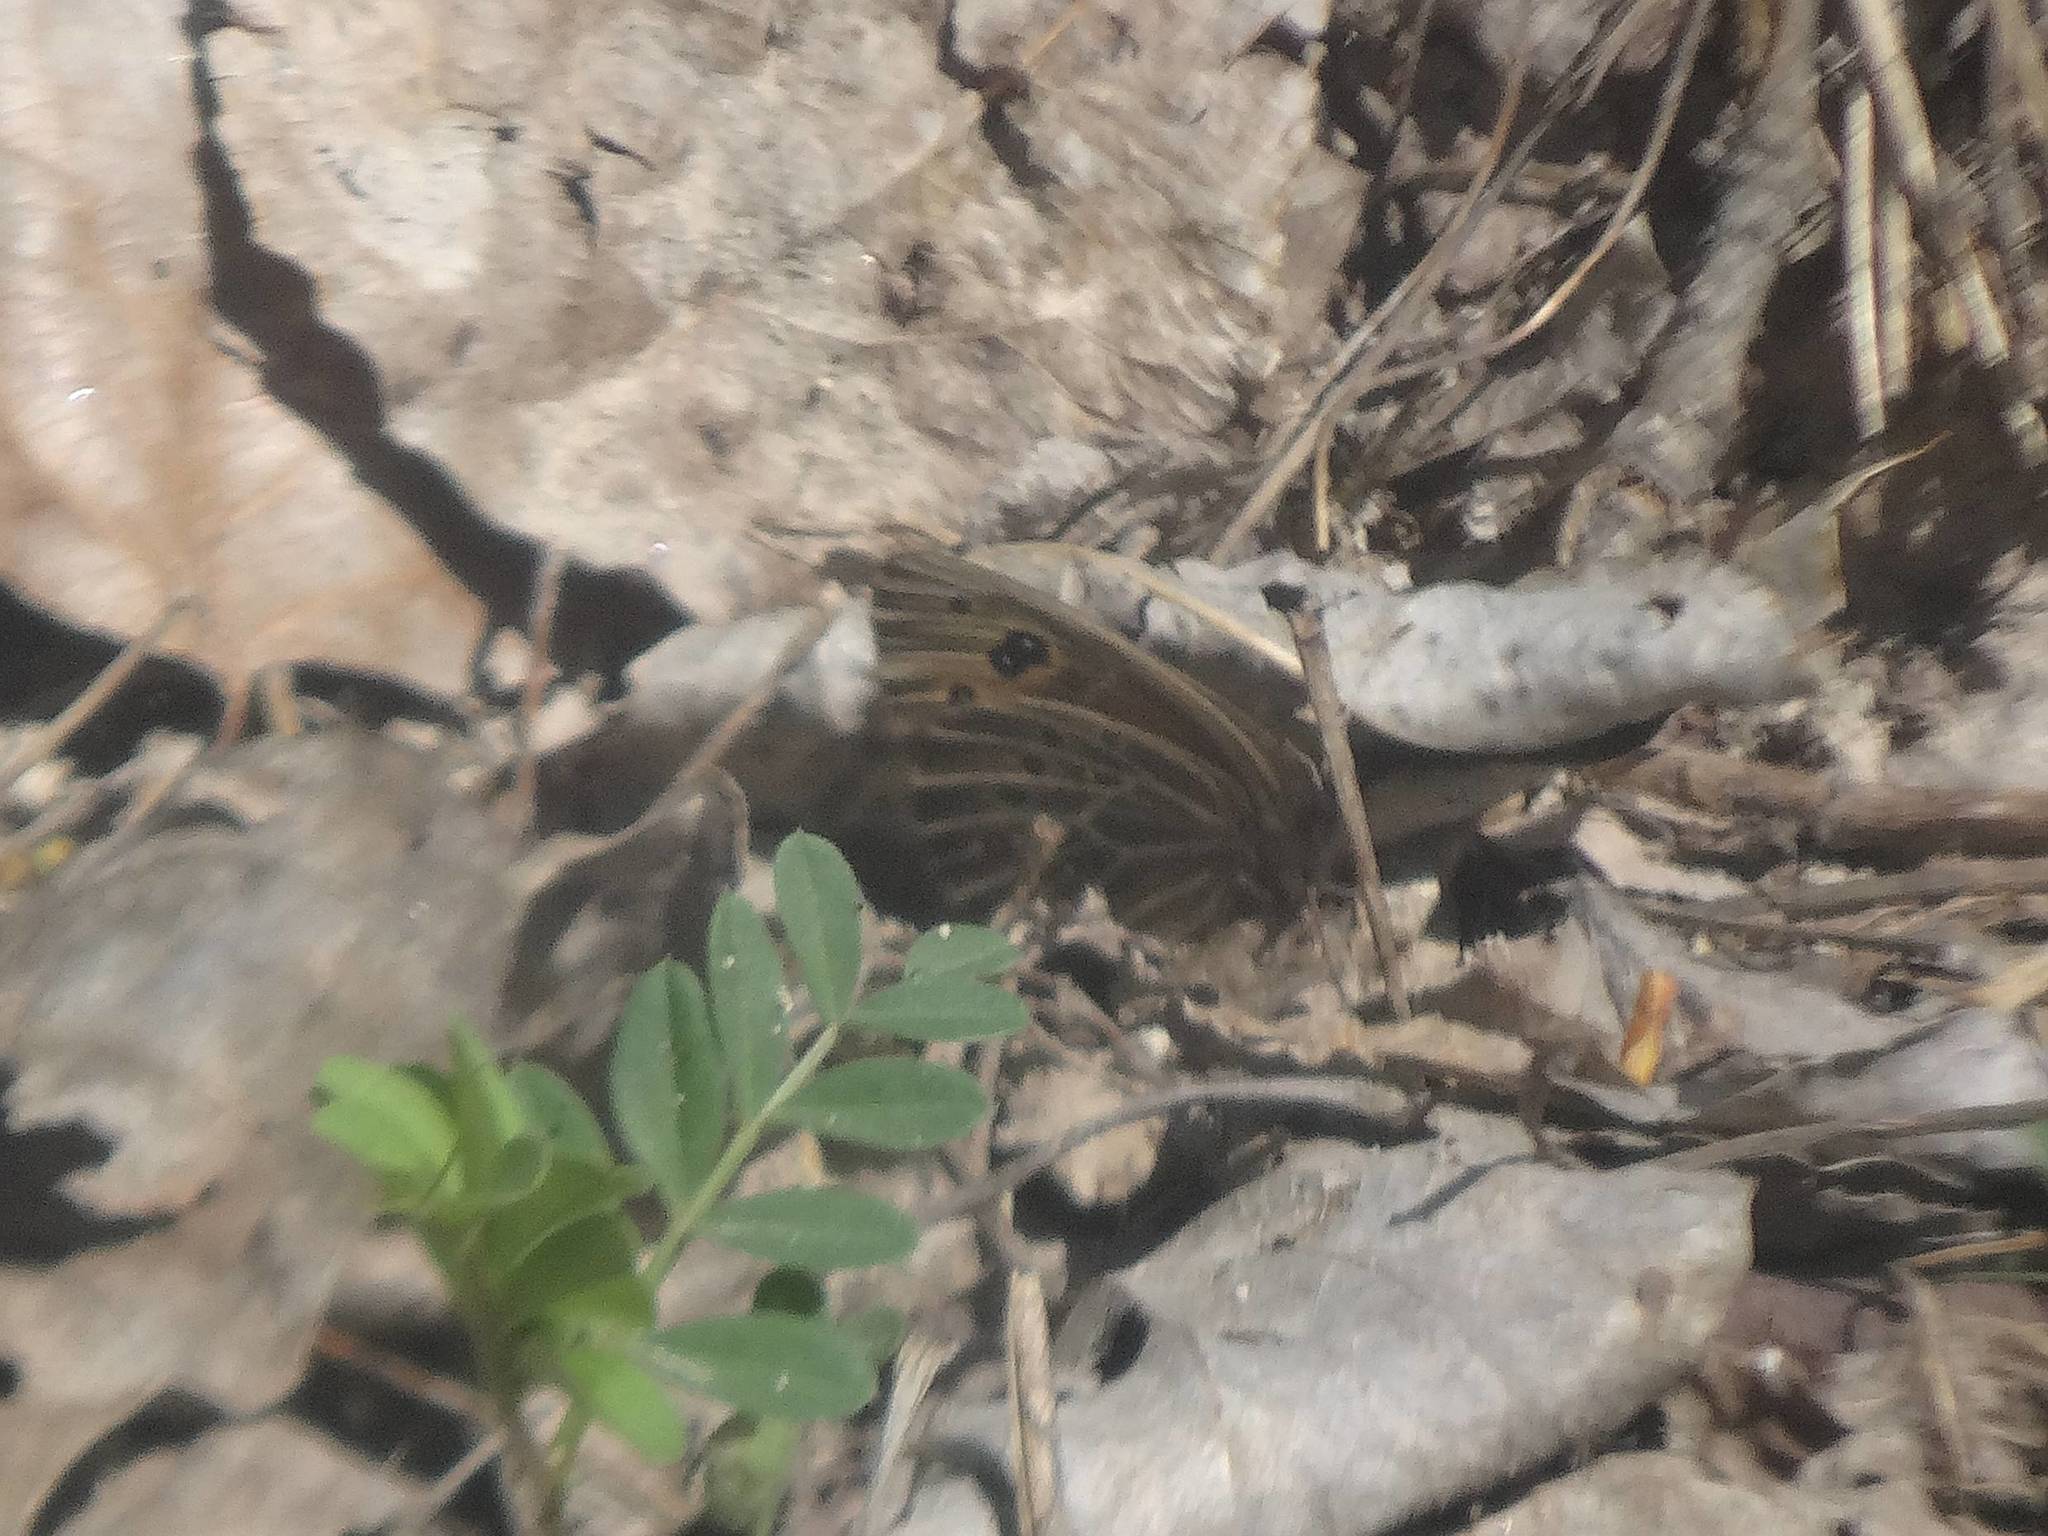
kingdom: Animalia
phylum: Arthropoda
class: Insecta
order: Lepidoptera
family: Nymphalidae
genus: Proterebia
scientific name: Proterebia afra
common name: Dalmatian ringlet
